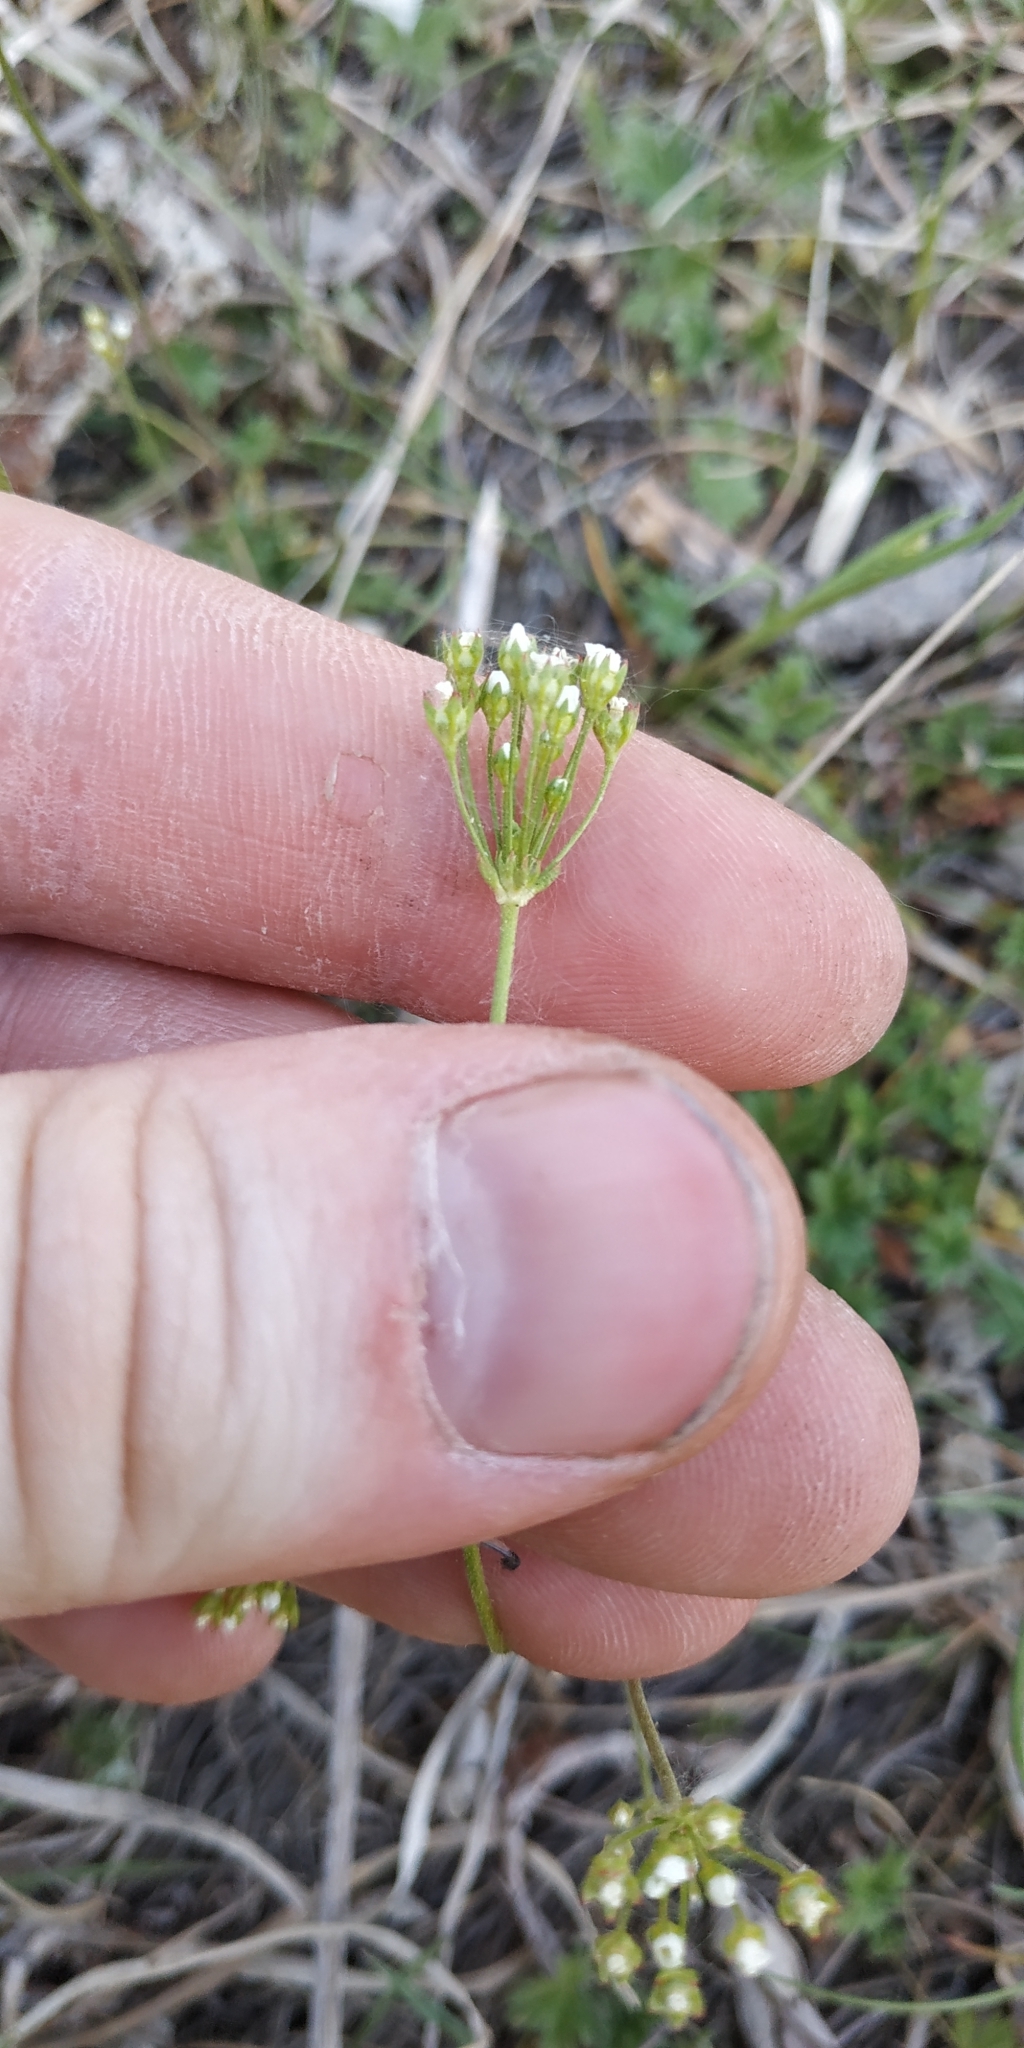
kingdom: Plantae
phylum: Tracheophyta
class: Magnoliopsida
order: Ericales
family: Primulaceae
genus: Androsace
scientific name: Androsace septentrionalis
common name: Hairy northern fairy-candelabra
